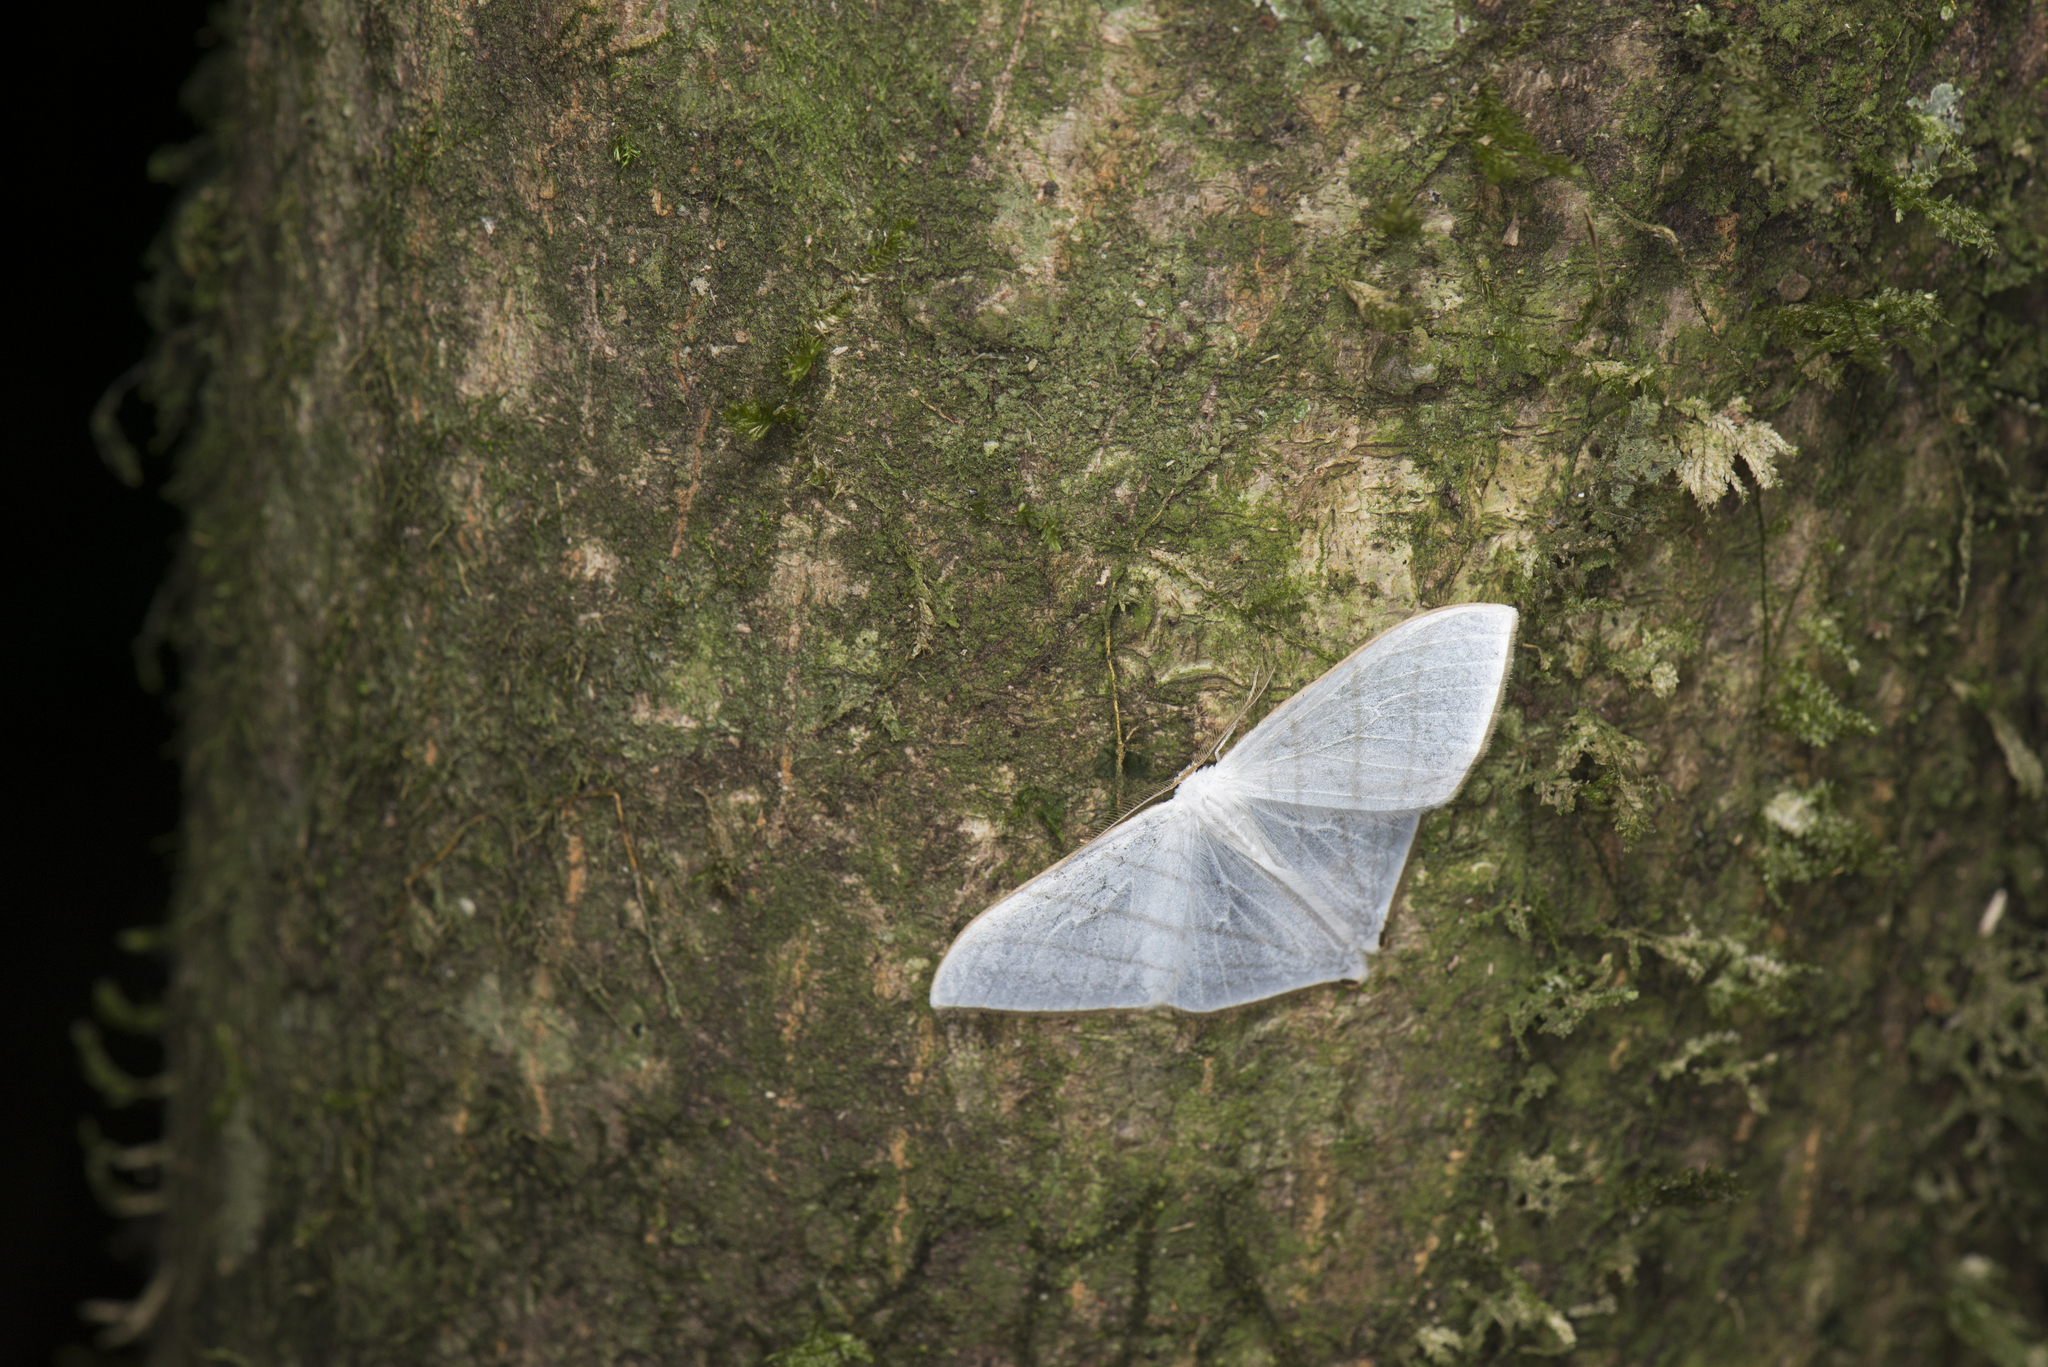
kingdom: Animalia
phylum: Arthropoda
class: Insecta
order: Lepidoptera
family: Drepanidae
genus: Ditrigona
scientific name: Ditrigona triangularia
